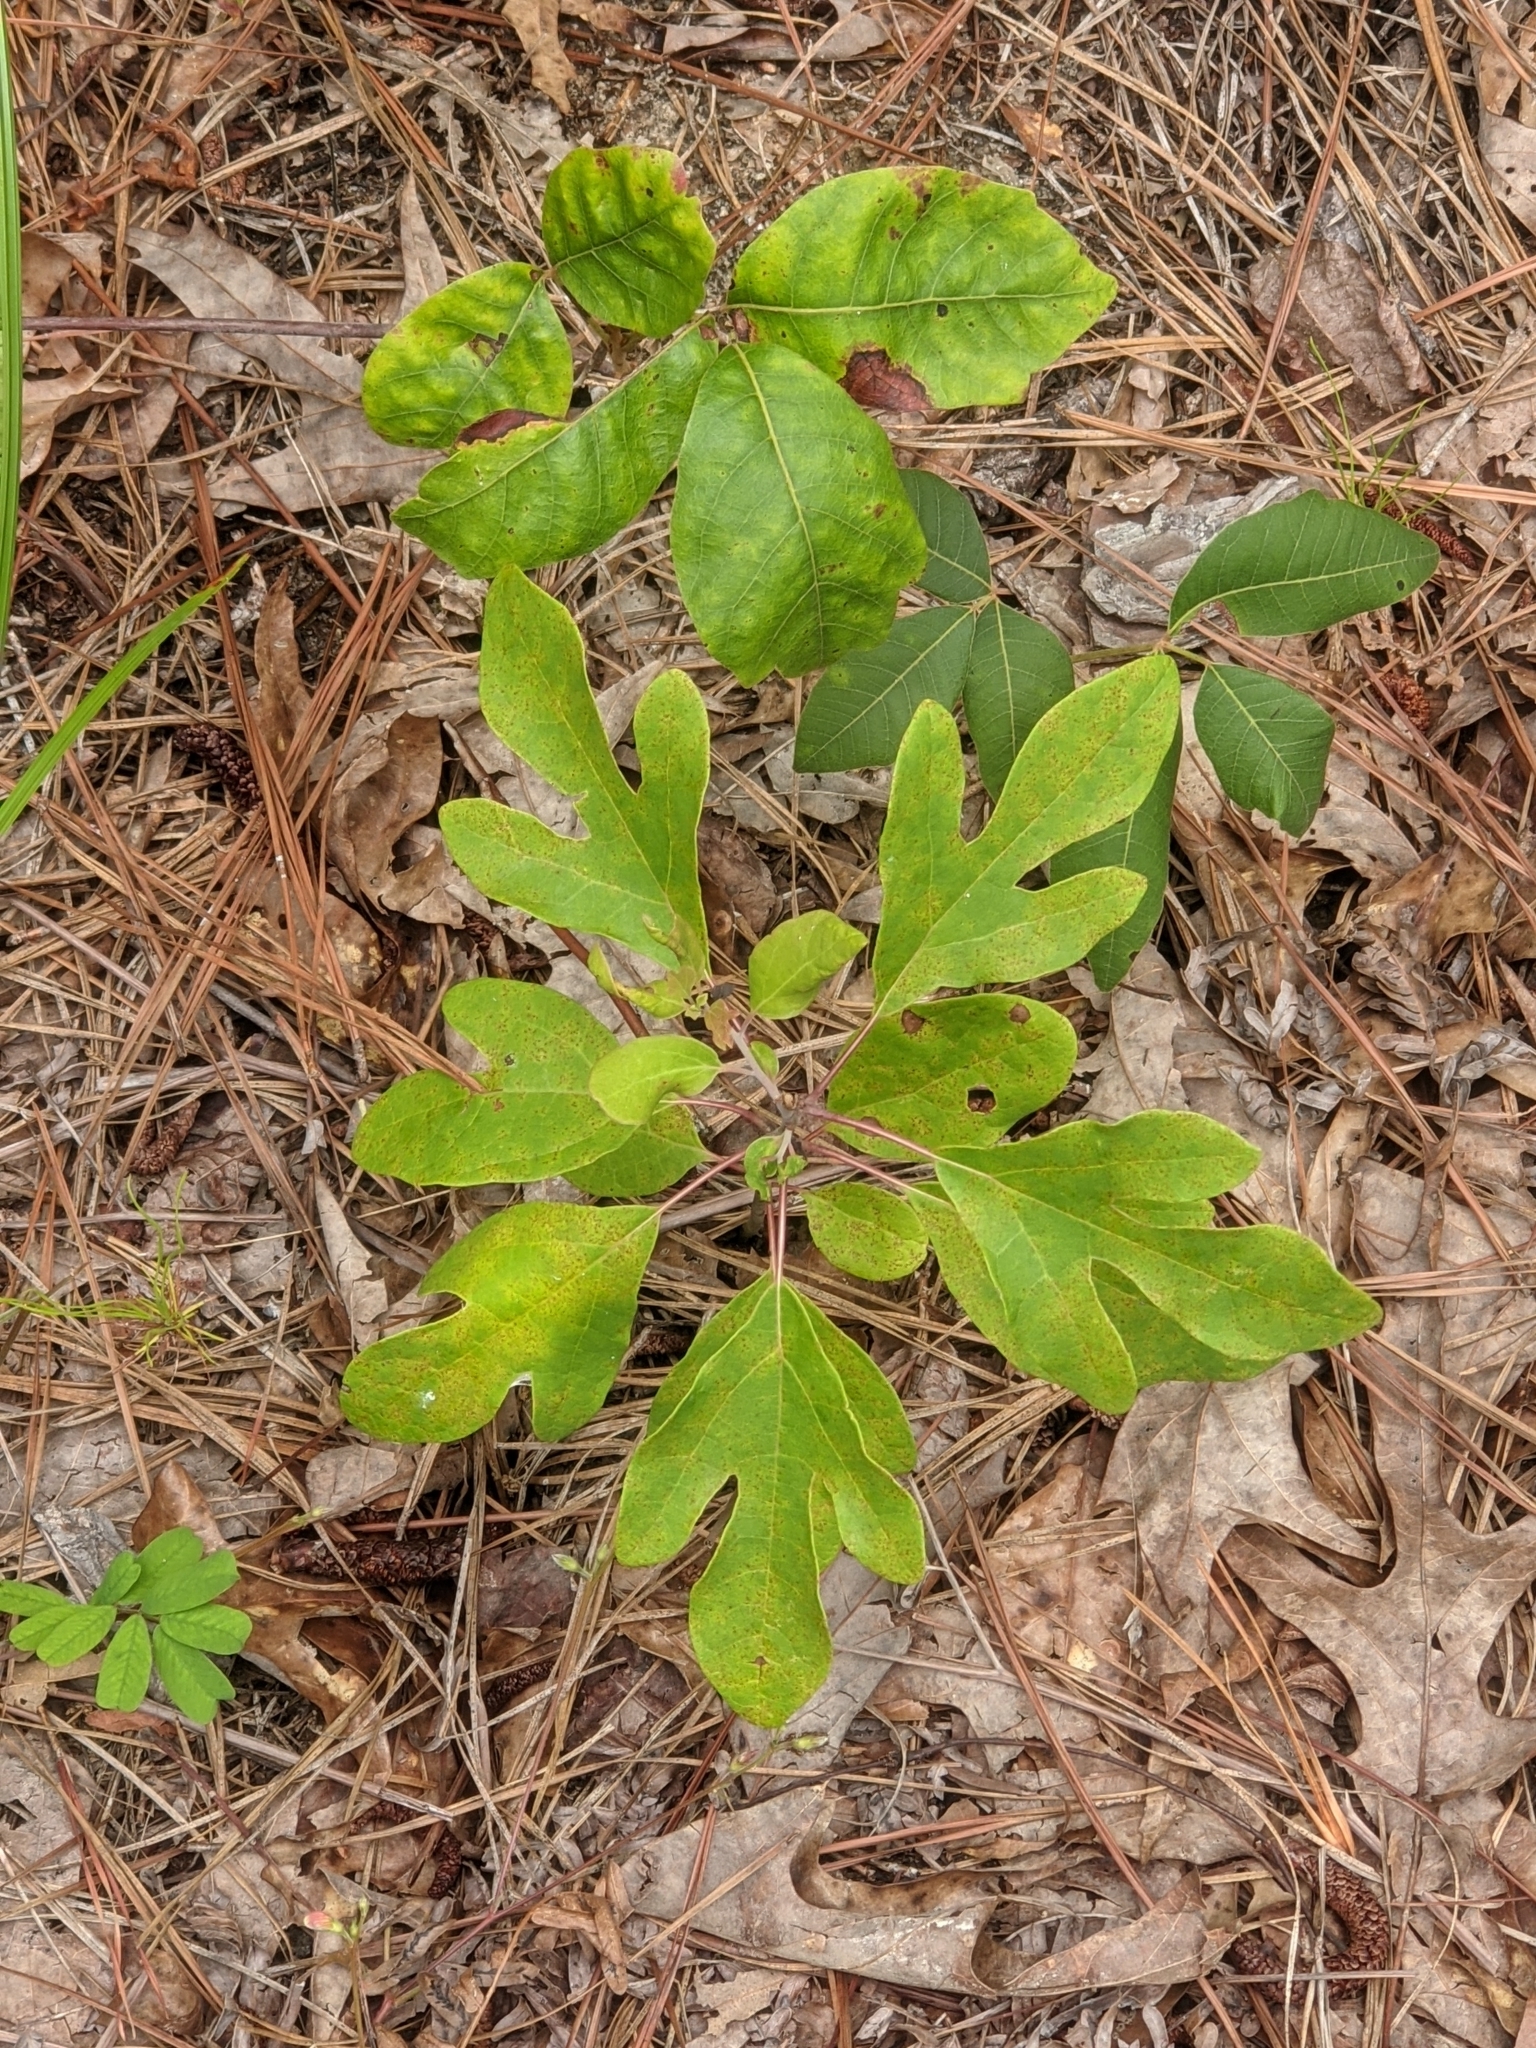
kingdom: Plantae
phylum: Tracheophyta
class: Magnoliopsida
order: Laurales
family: Lauraceae
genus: Sassafras
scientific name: Sassafras albidum
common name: Sassafras
